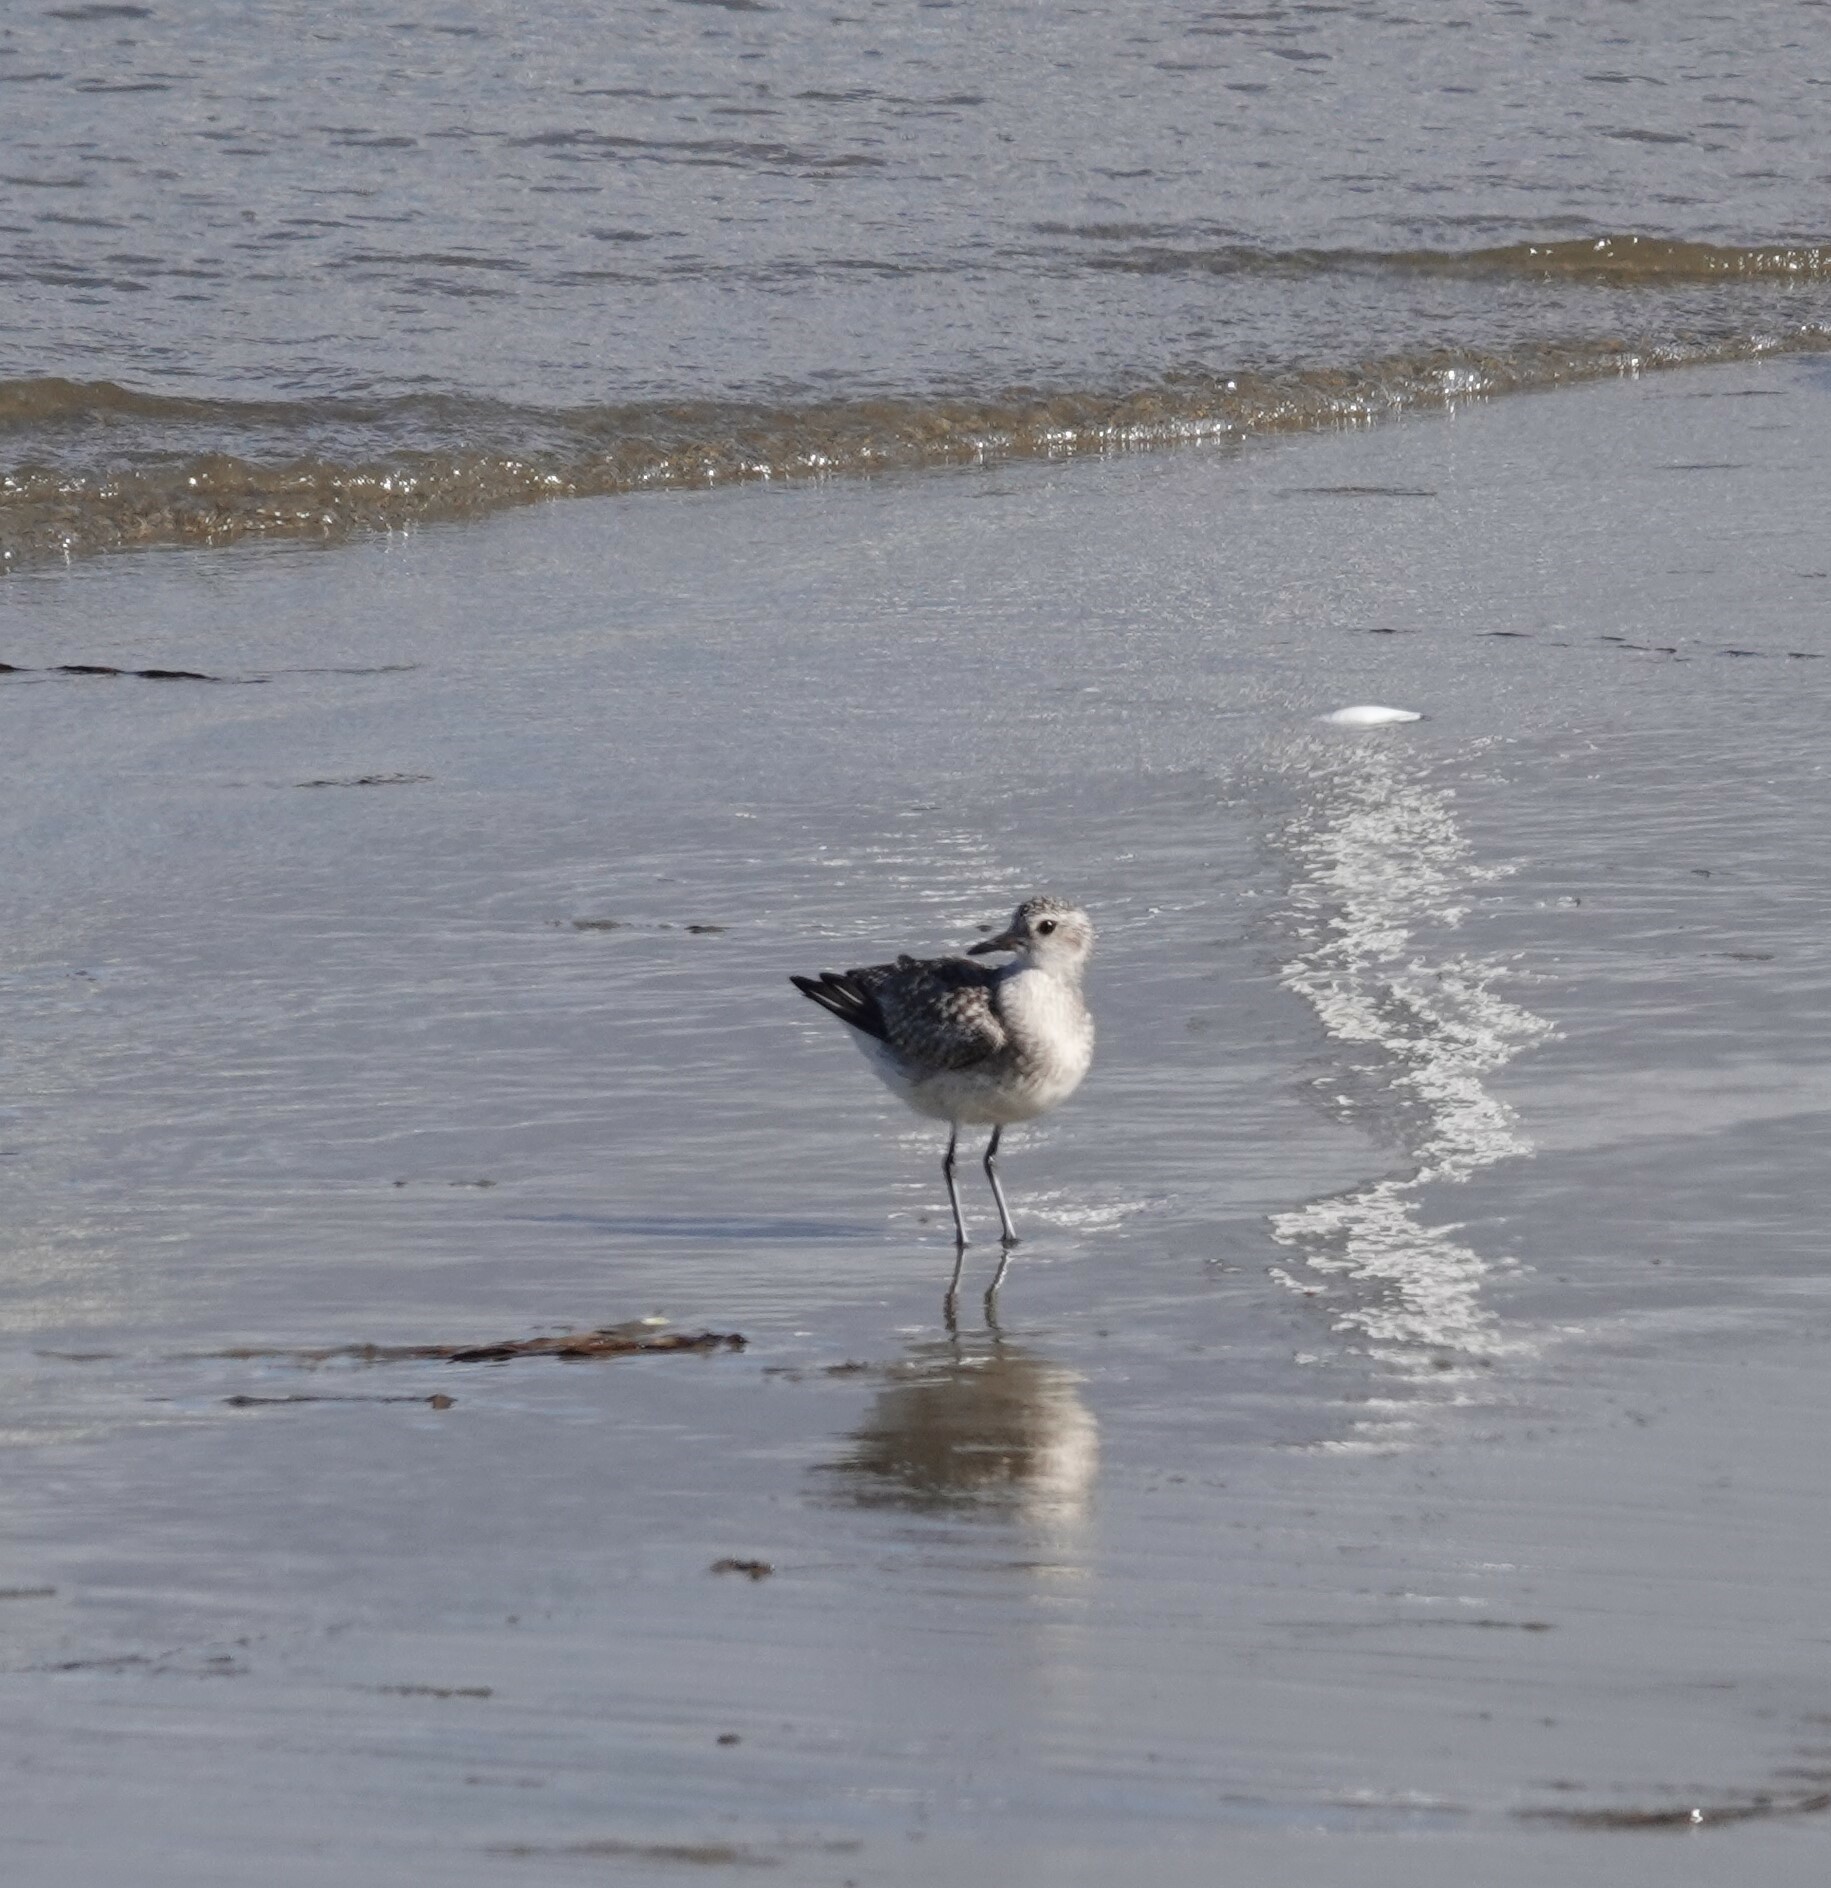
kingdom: Animalia
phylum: Chordata
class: Aves
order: Charadriiformes
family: Charadriidae
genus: Pluvialis
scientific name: Pluvialis squatarola
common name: Grey plover
